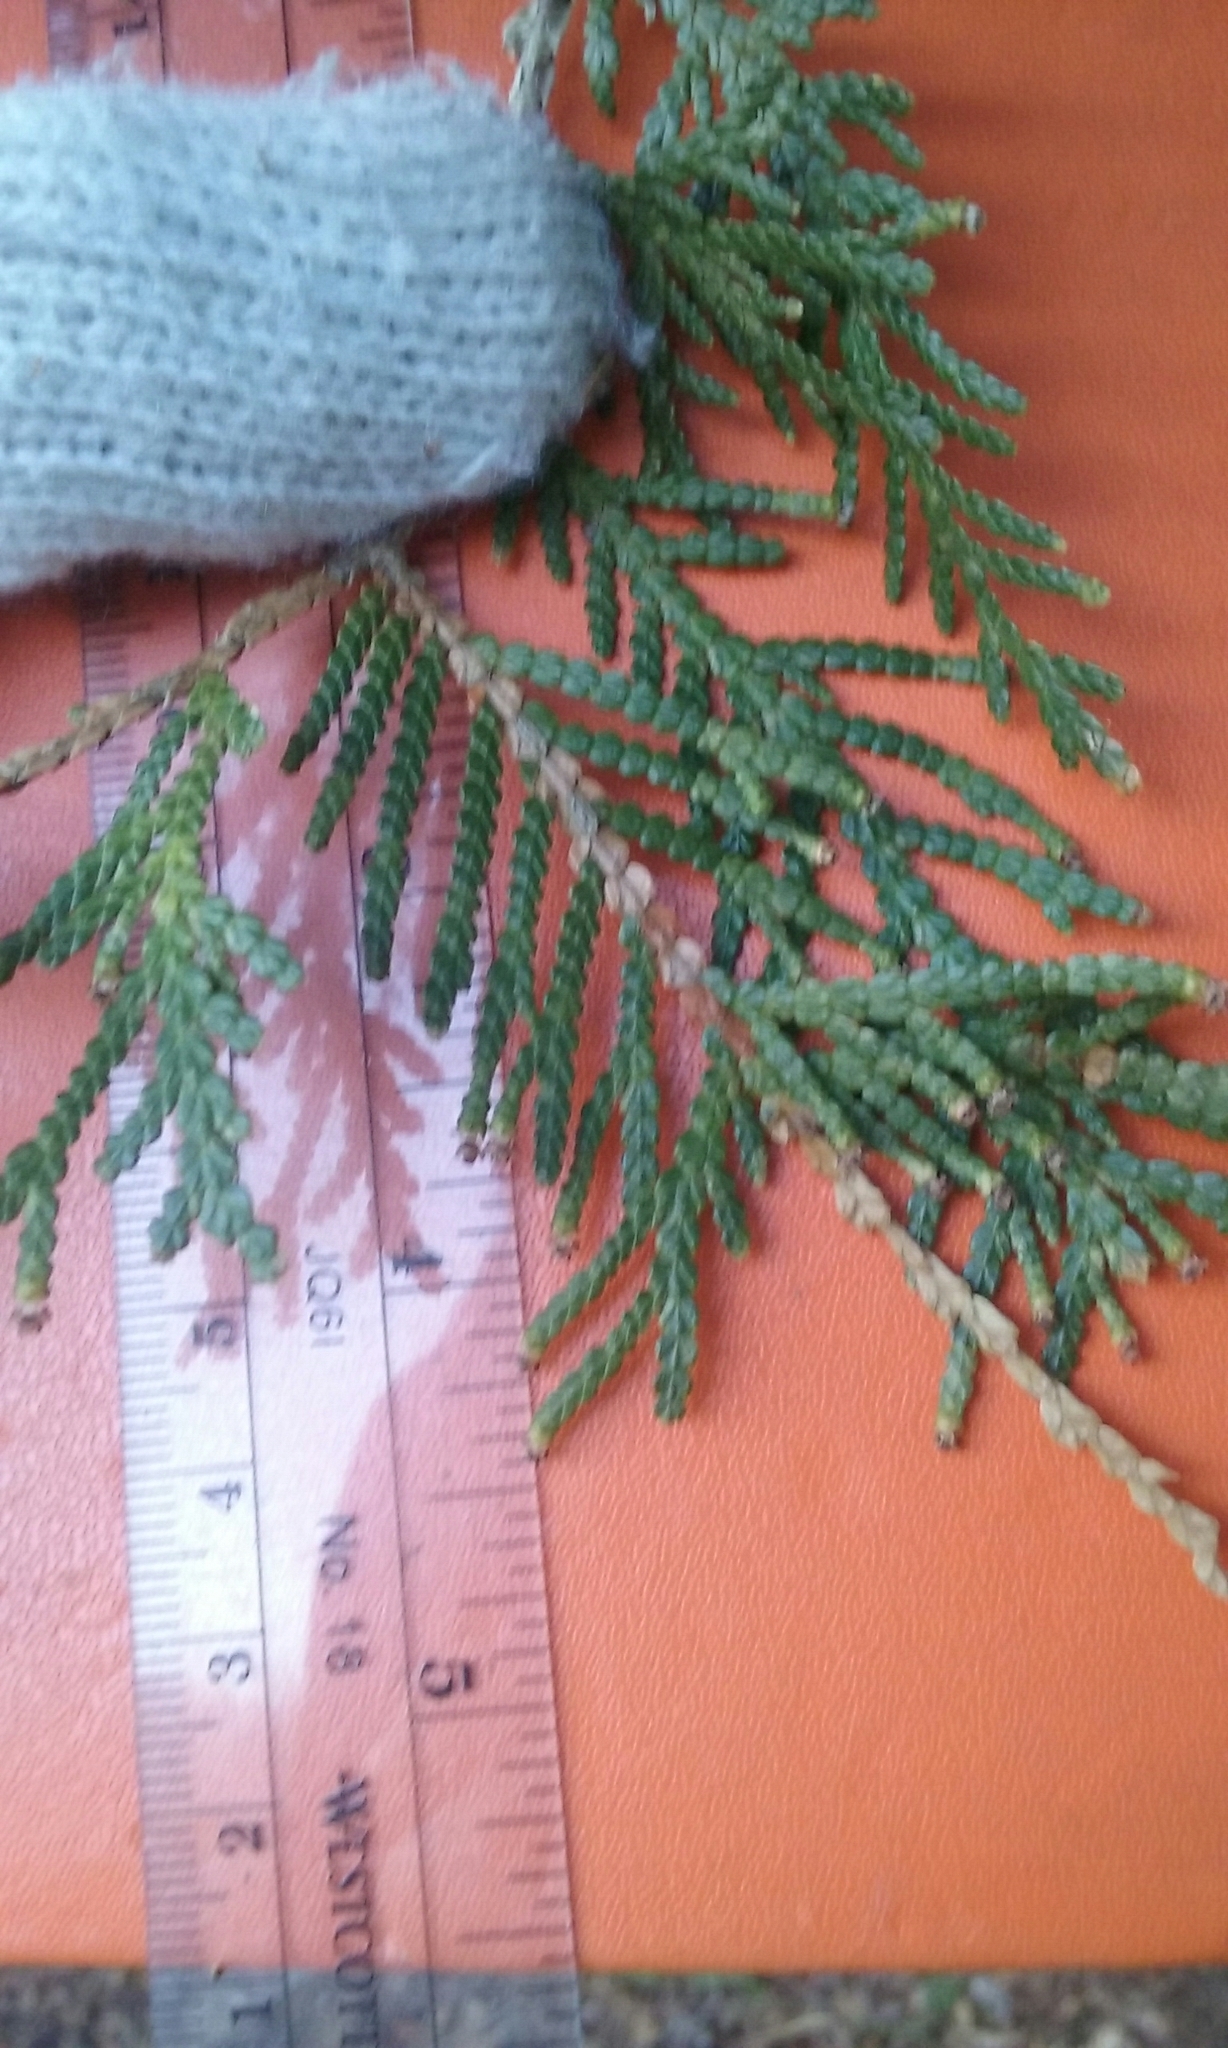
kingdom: Plantae
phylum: Tracheophyta
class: Pinopsida
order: Pinales
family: Cupressaceae
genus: Thuja
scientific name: Thuja occidentalis
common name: Northern white-cedar
